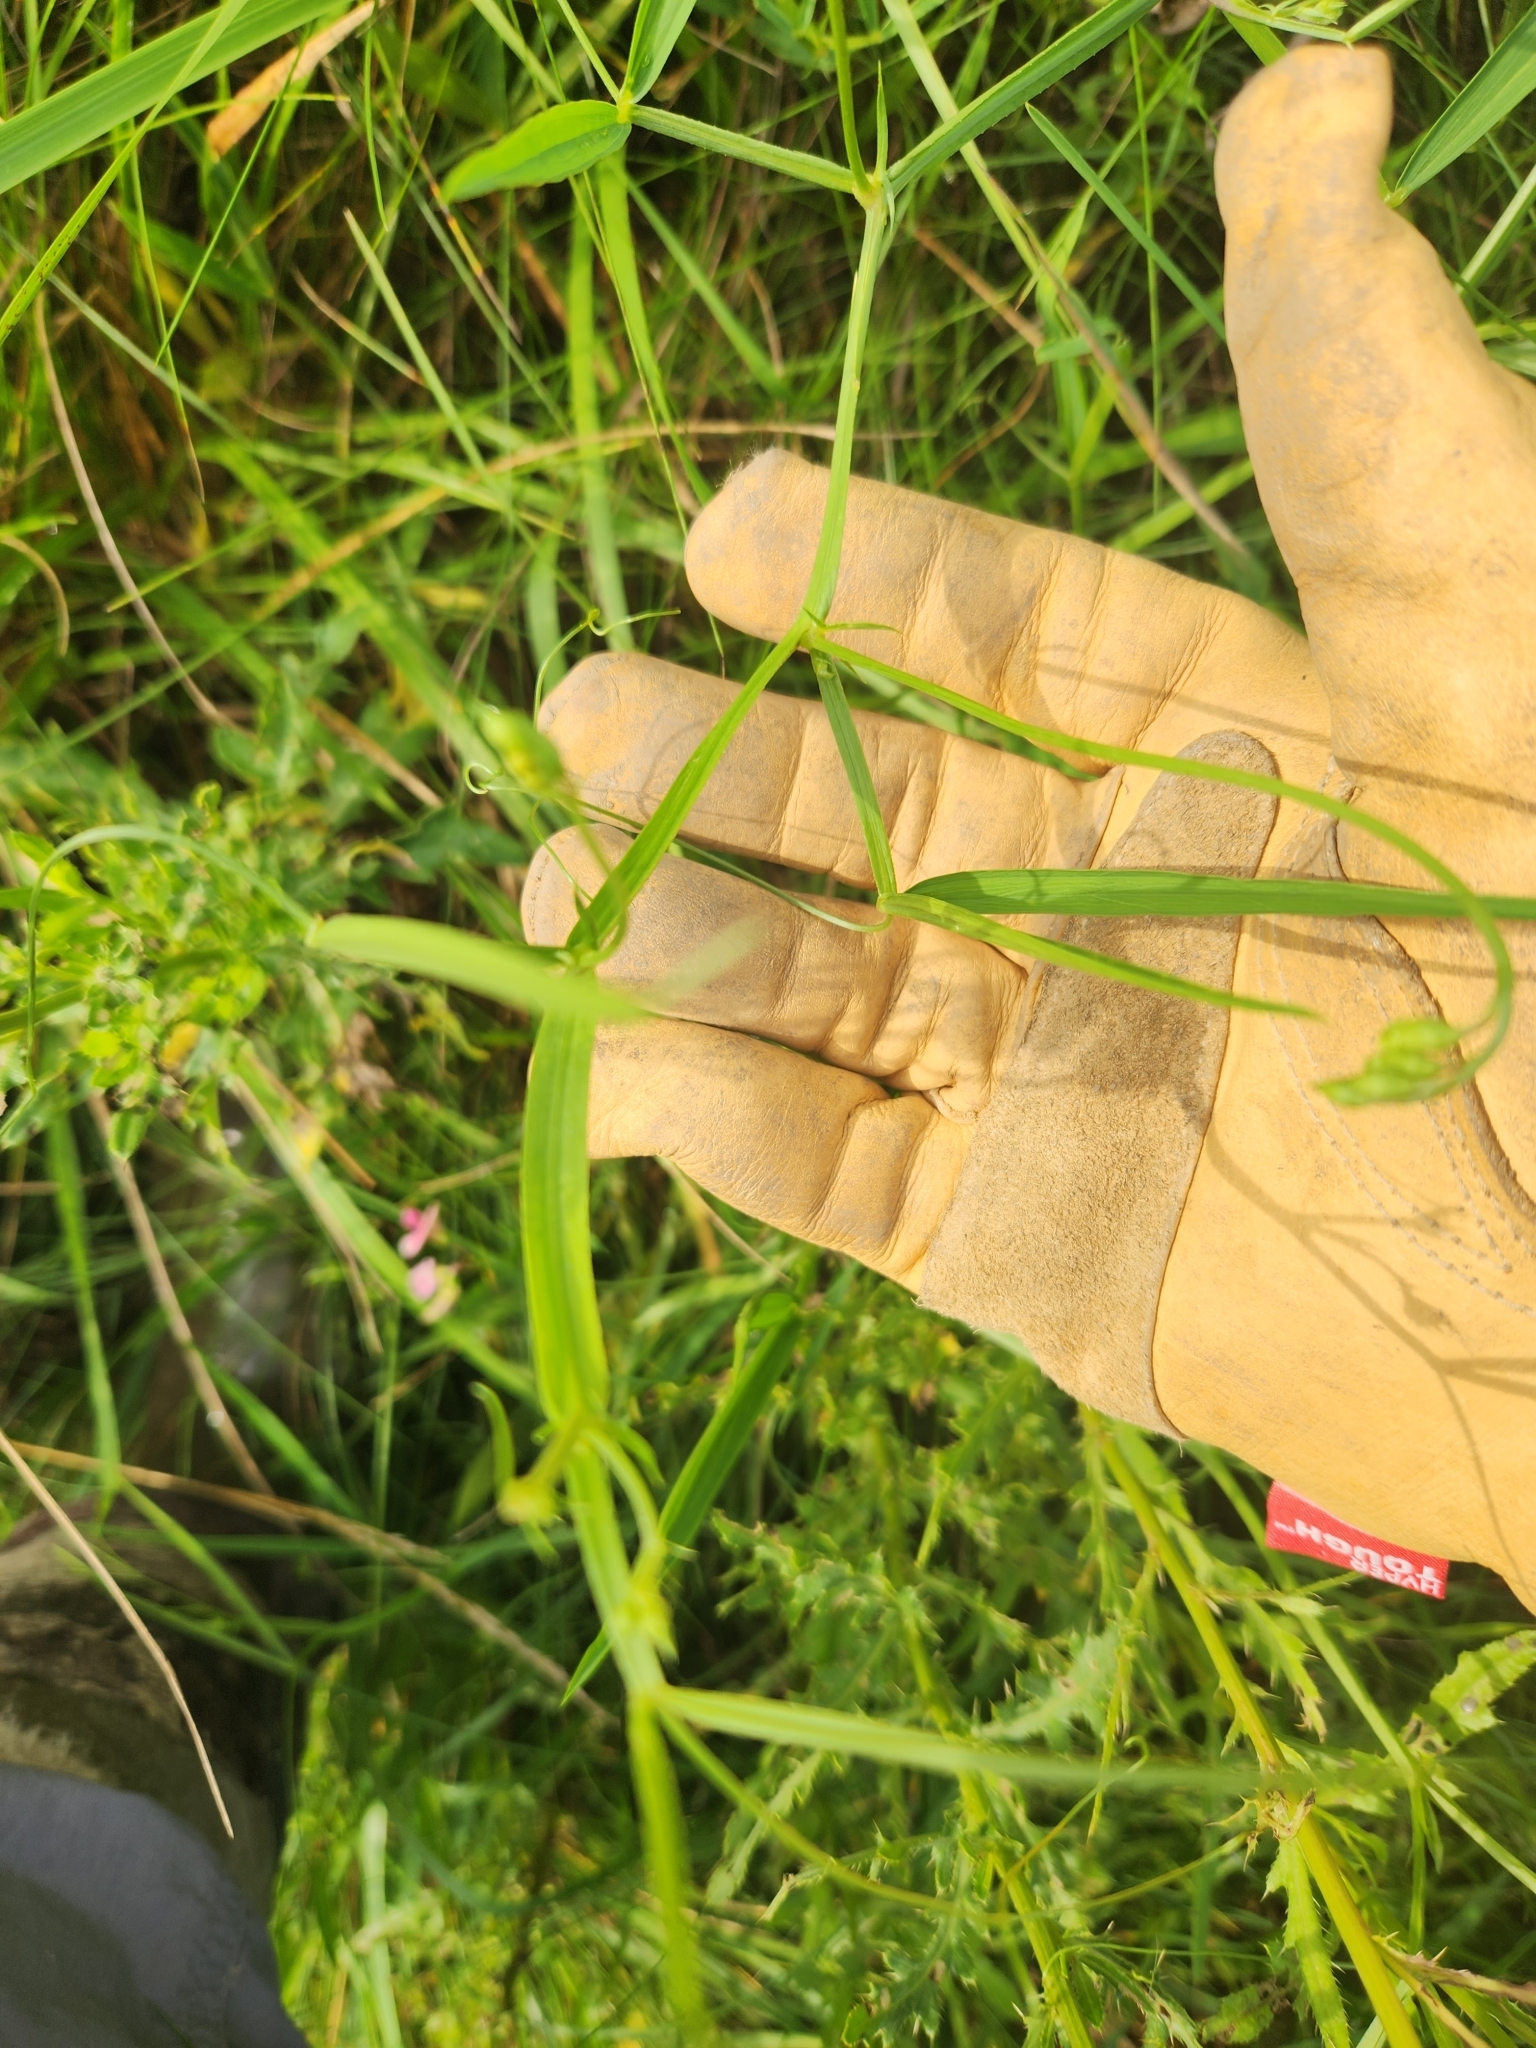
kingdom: Plantae
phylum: Tracheophyta
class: Magnoliopsida
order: Fabales
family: Fabaceae
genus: Lathyrus
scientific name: Lathyrus sylvestris
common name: Flat pea
